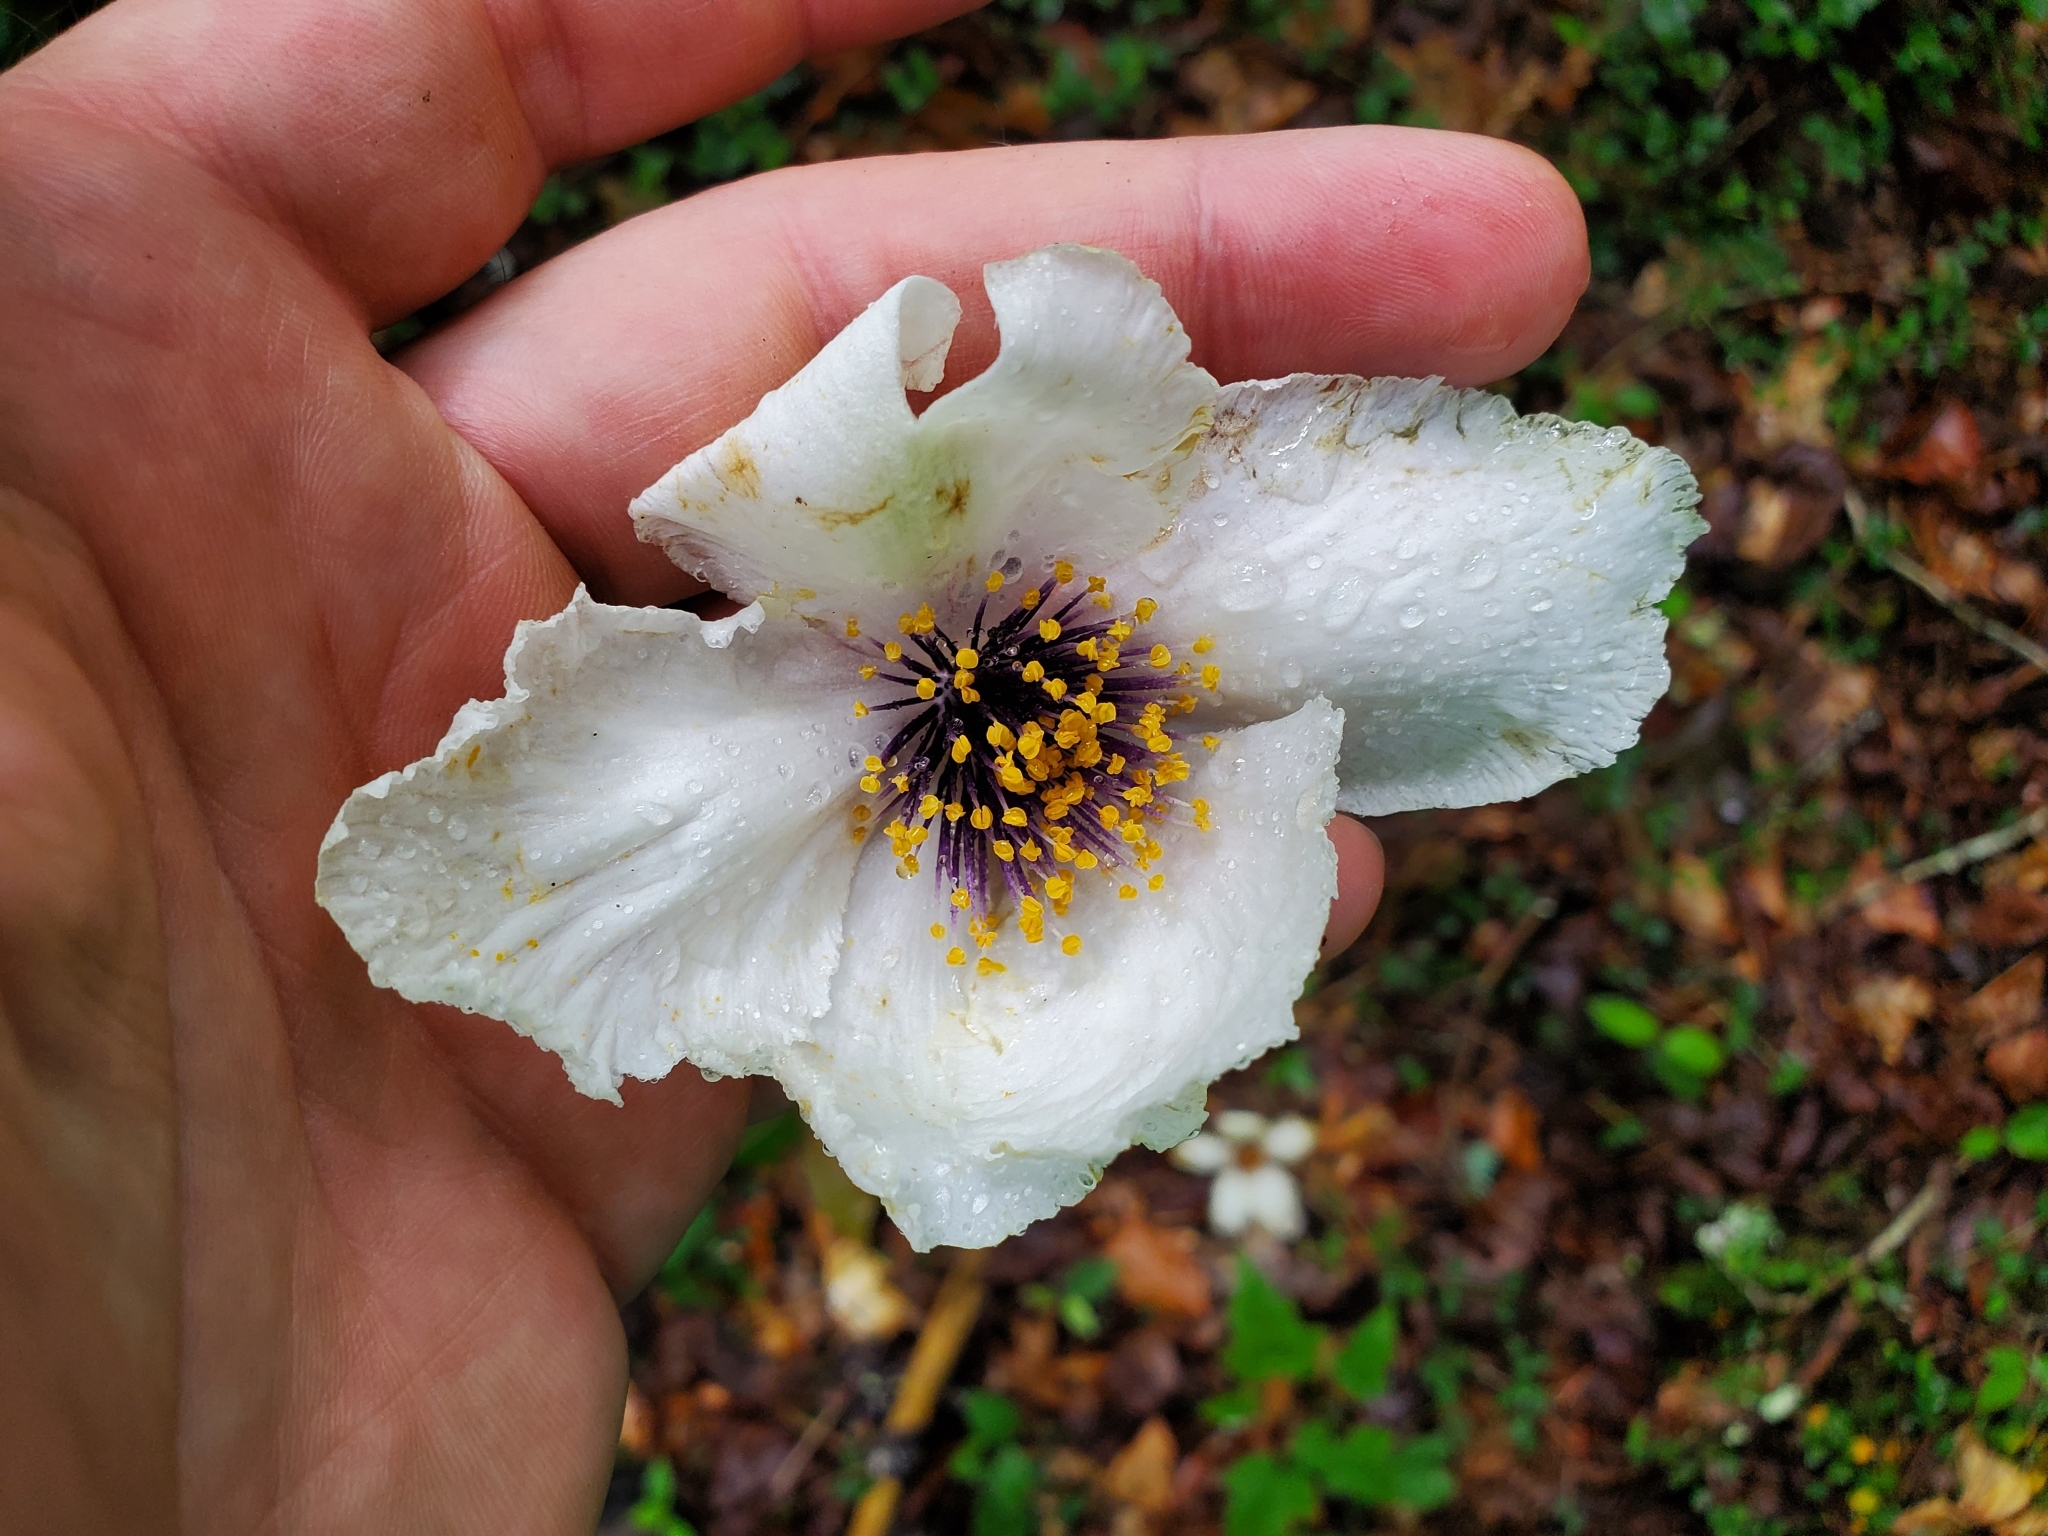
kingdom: Plantae
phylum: Tracheophyta
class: Magnoliopsida
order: Ericales
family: Theaceae
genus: Stewartia
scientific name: Stewartia ovata
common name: Mountain camellia
